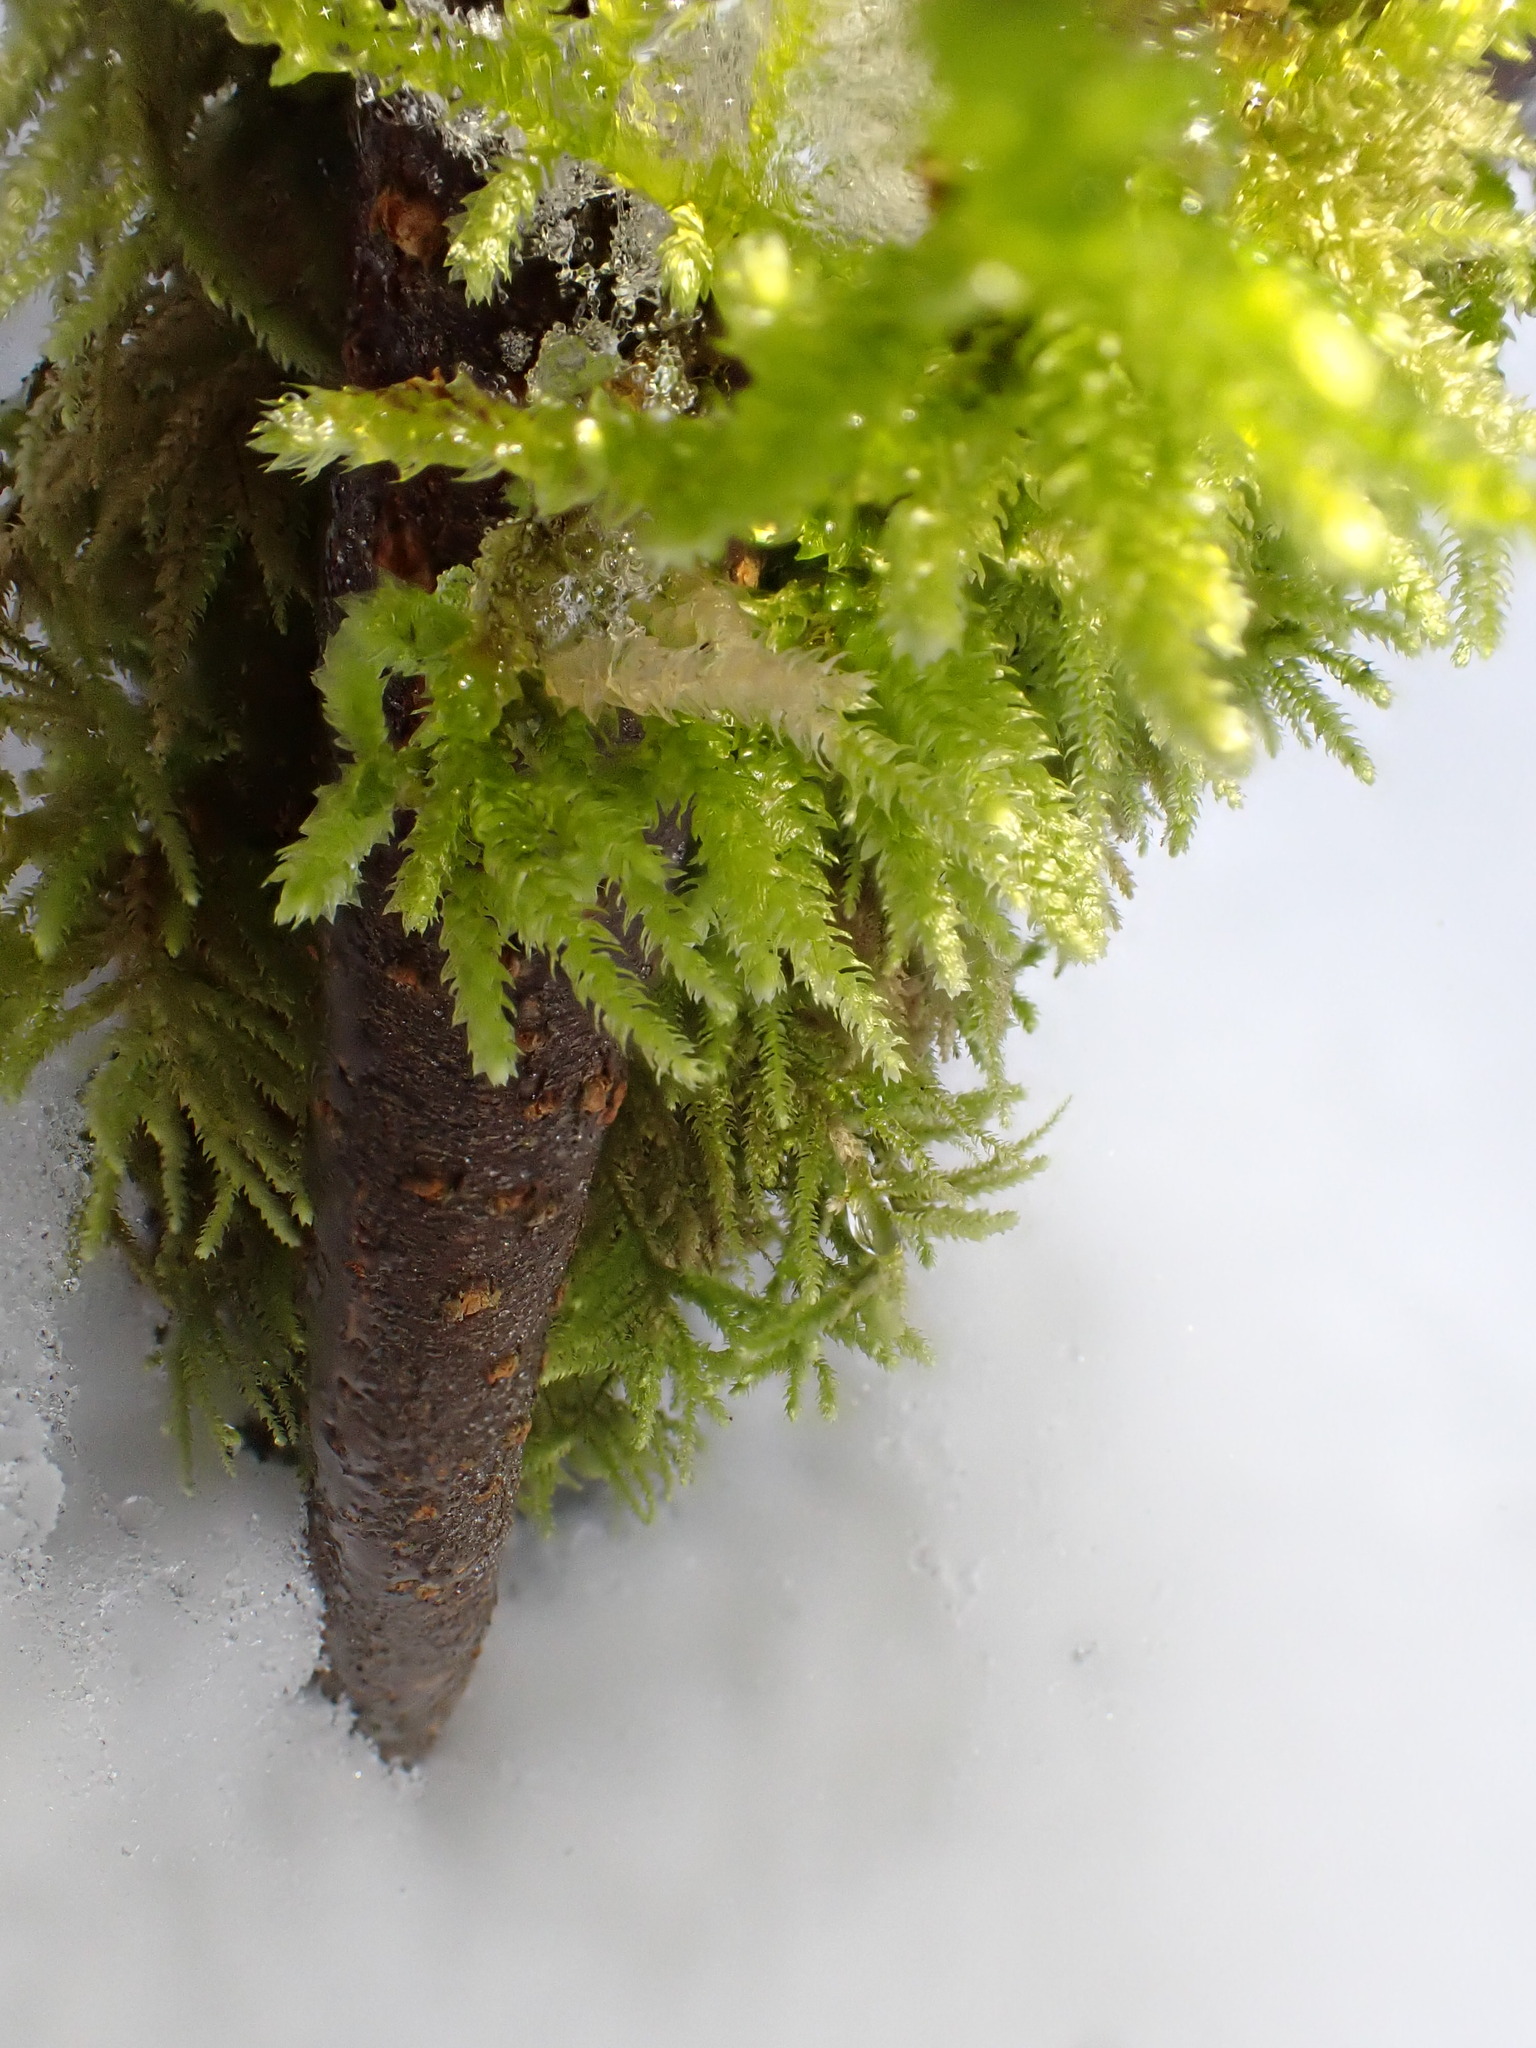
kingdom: Plantae
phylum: Bryophyta
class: Bryopsida
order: Hypnales
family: Brachytheciaceae
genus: Eurhynchium
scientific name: Eurhynchium angustirete
